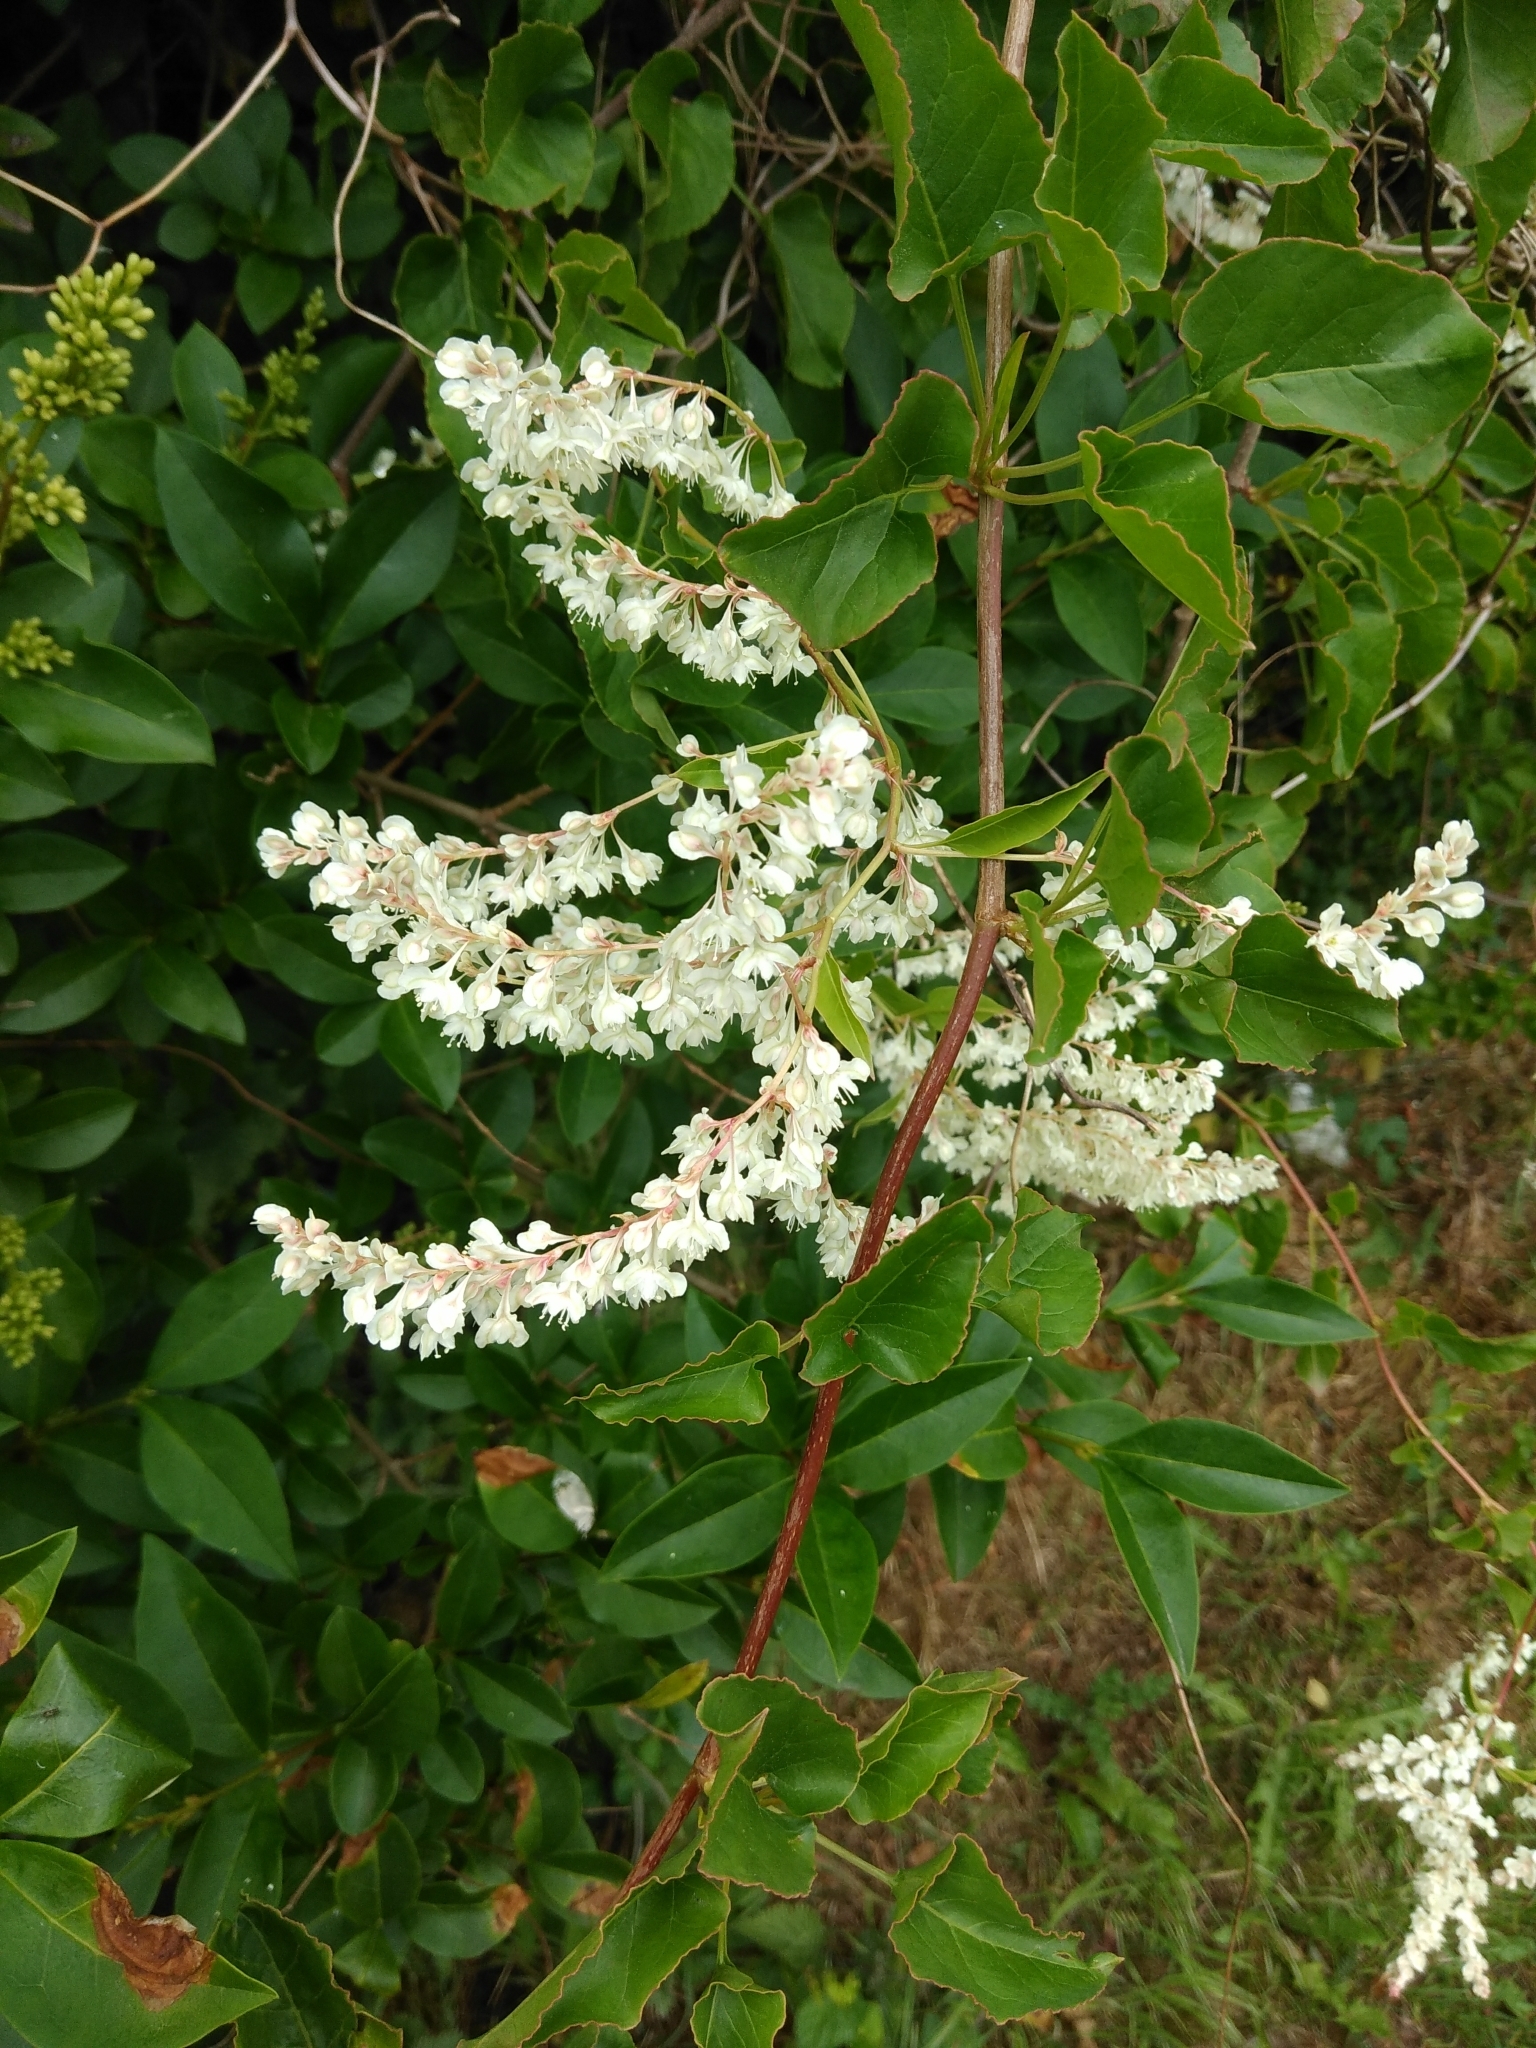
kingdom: Plantae
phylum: Tracheophyta
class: Magnoliopsida
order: Caryophyllales
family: Polygonaceae
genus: Fallopia
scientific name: Fallopia baldschuanica
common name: Russian-vine
